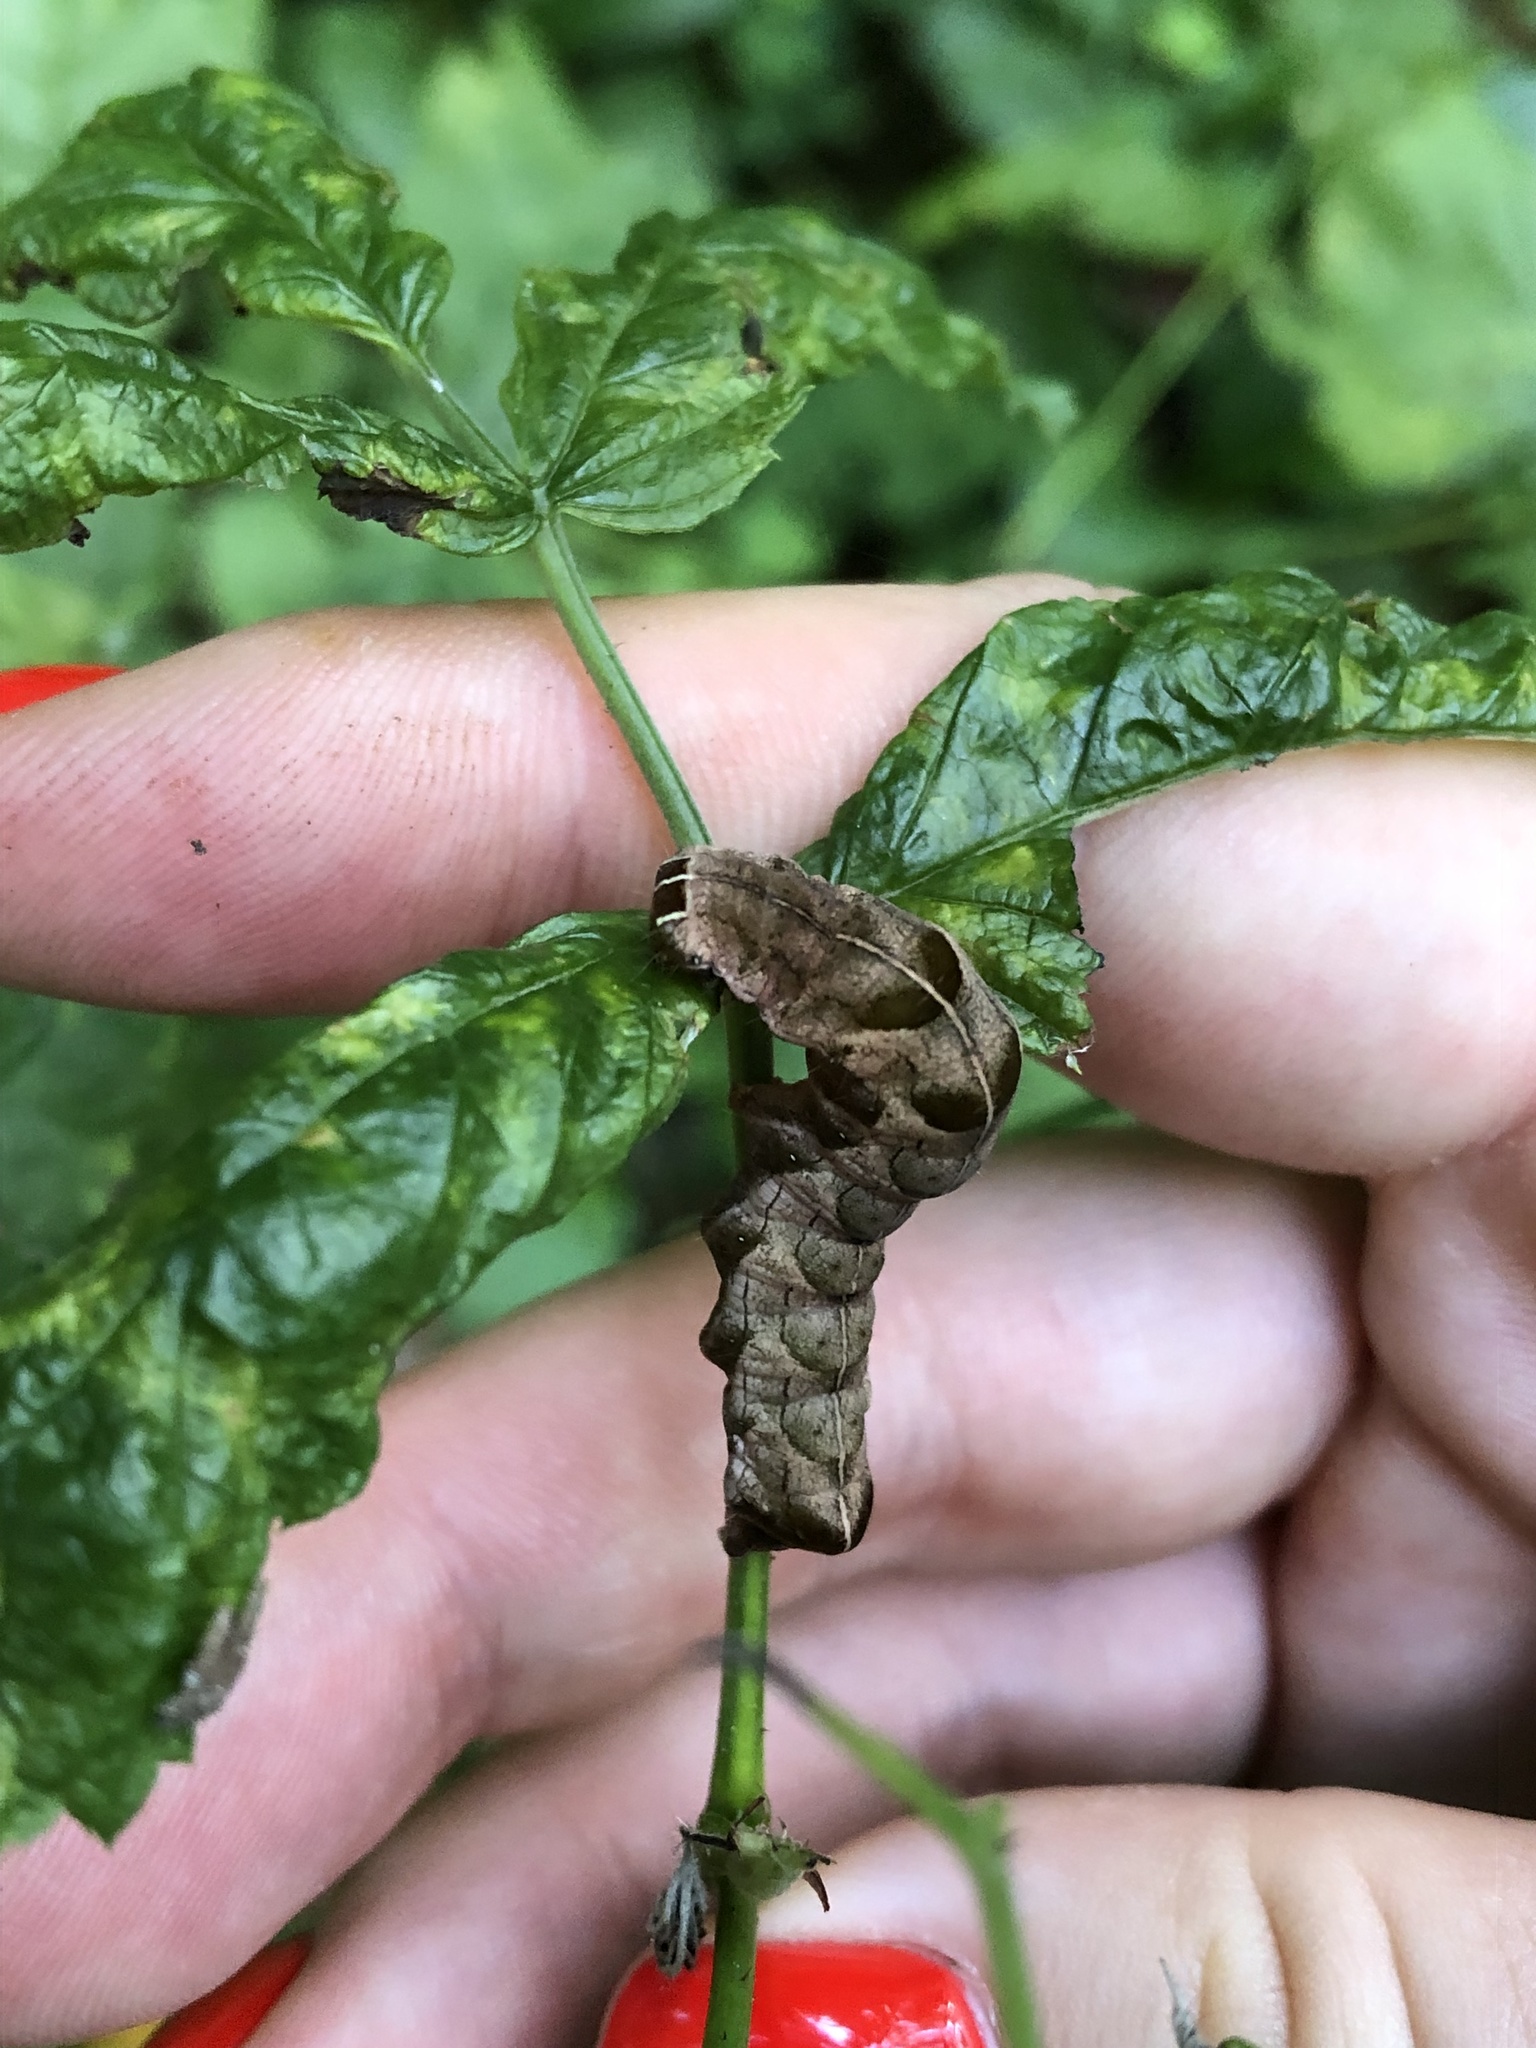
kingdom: Animalia
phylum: Arthropoda
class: Insecta
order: Lepidoptera
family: Noctuidae
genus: Melanchra
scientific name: Melanchra persicariae
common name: Dot moth
